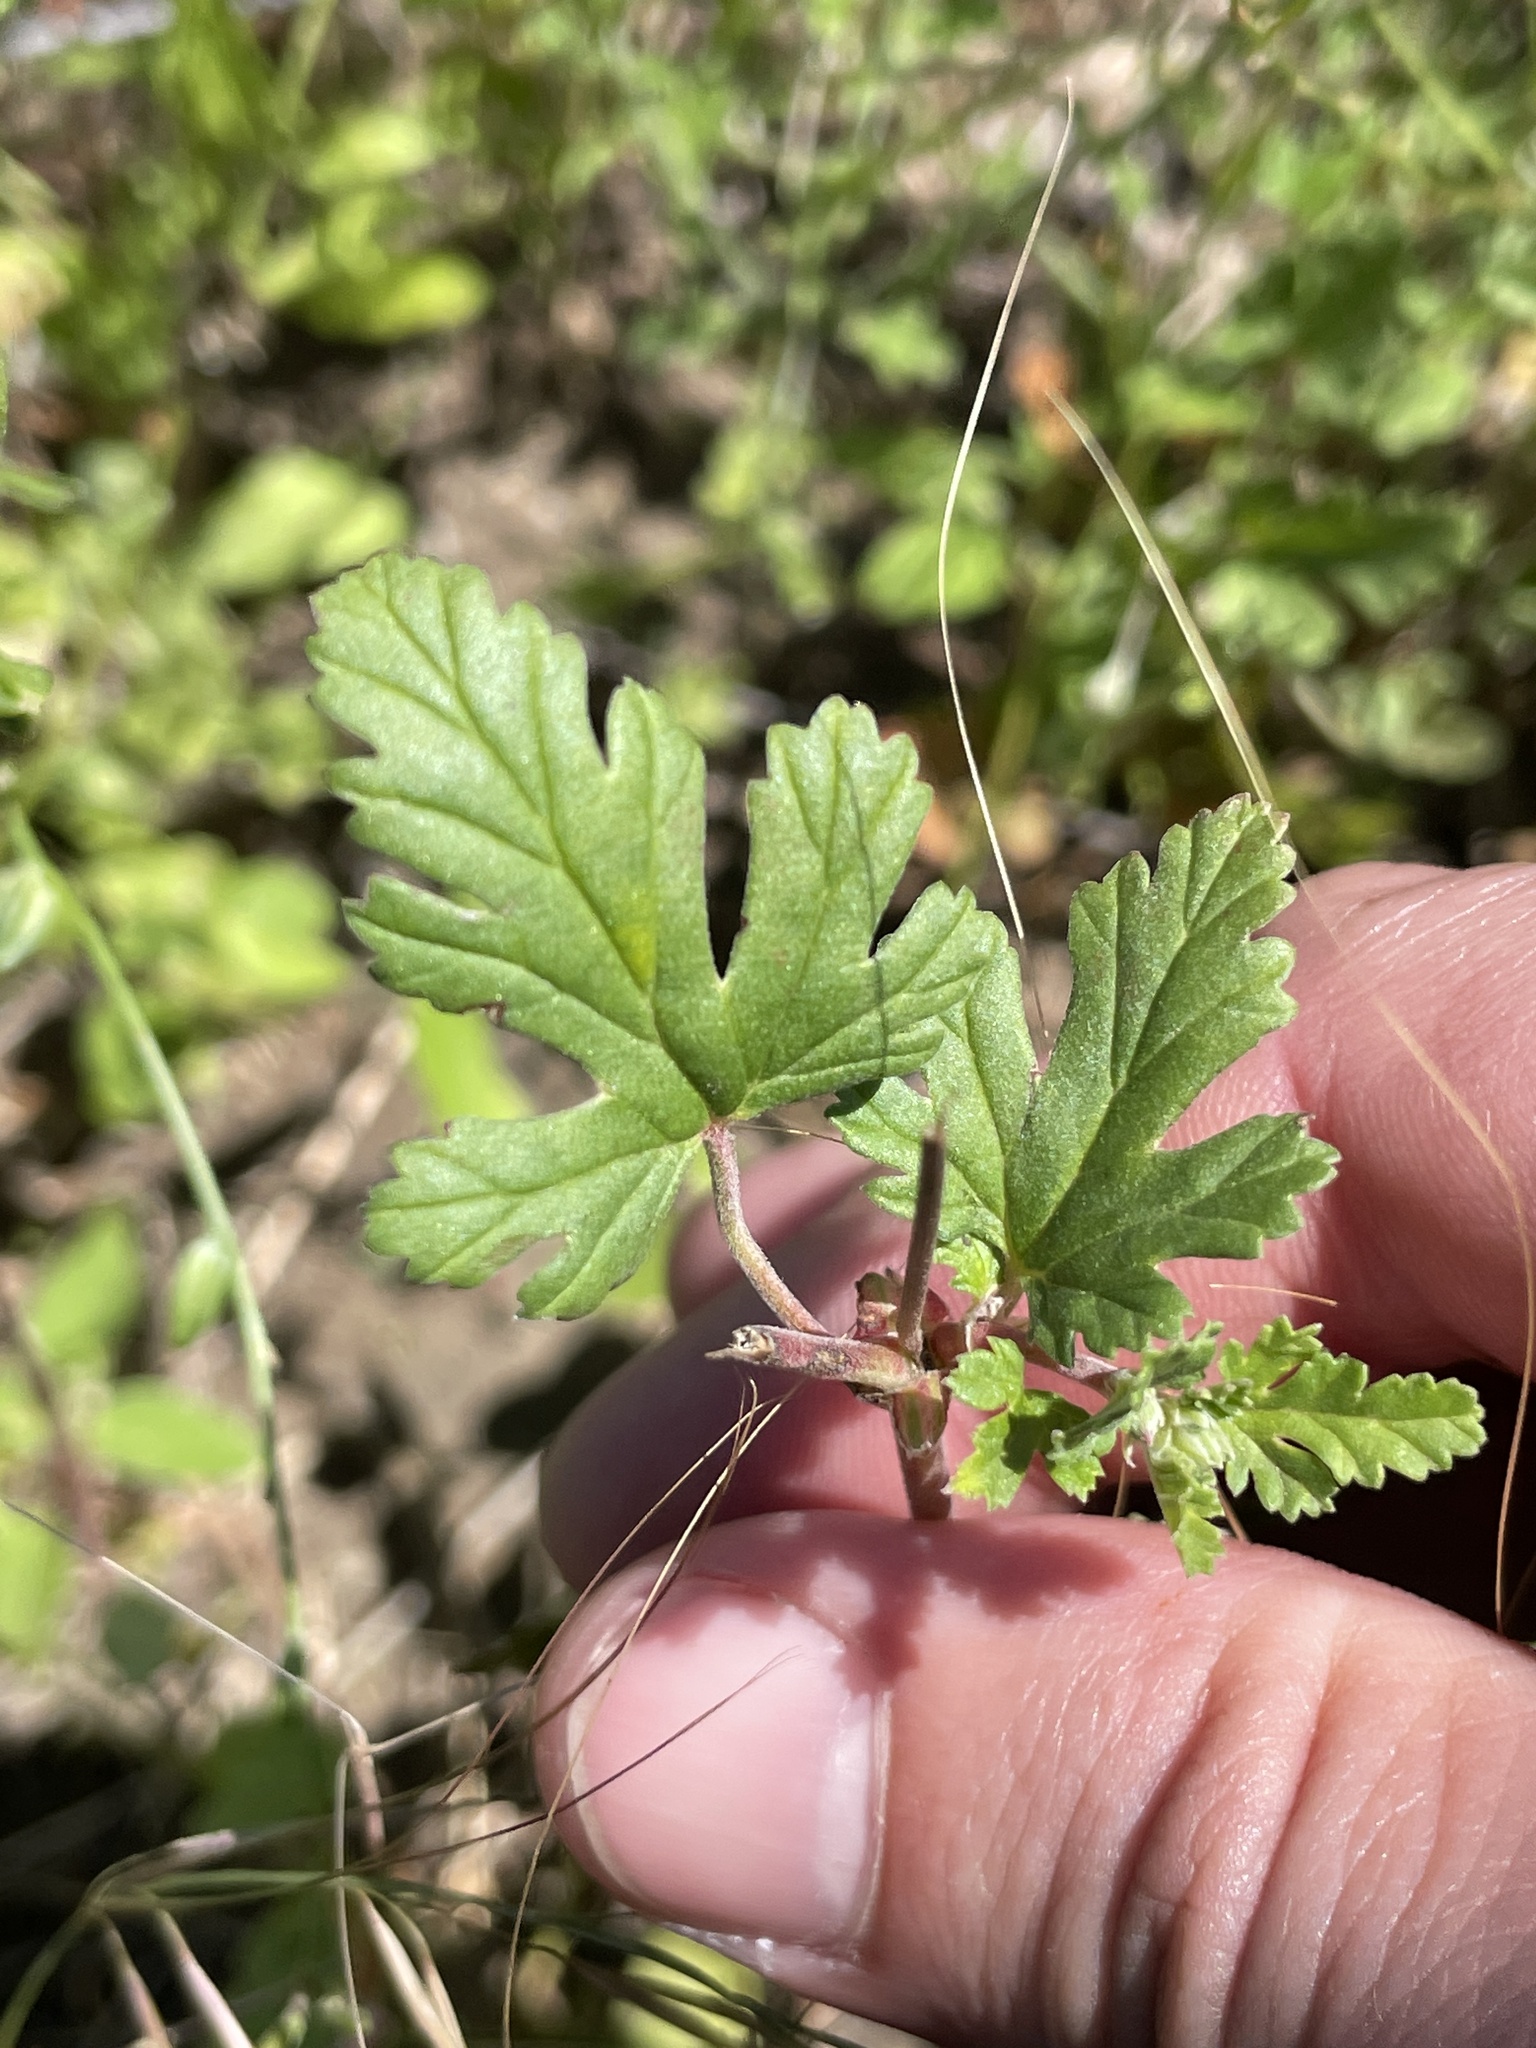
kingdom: Plantae
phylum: Tracheophyta
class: Magnoliopsida
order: Geraniales
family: Geraniaceae
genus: Erodium
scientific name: Erodium texanum
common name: Texas stork's-bill
